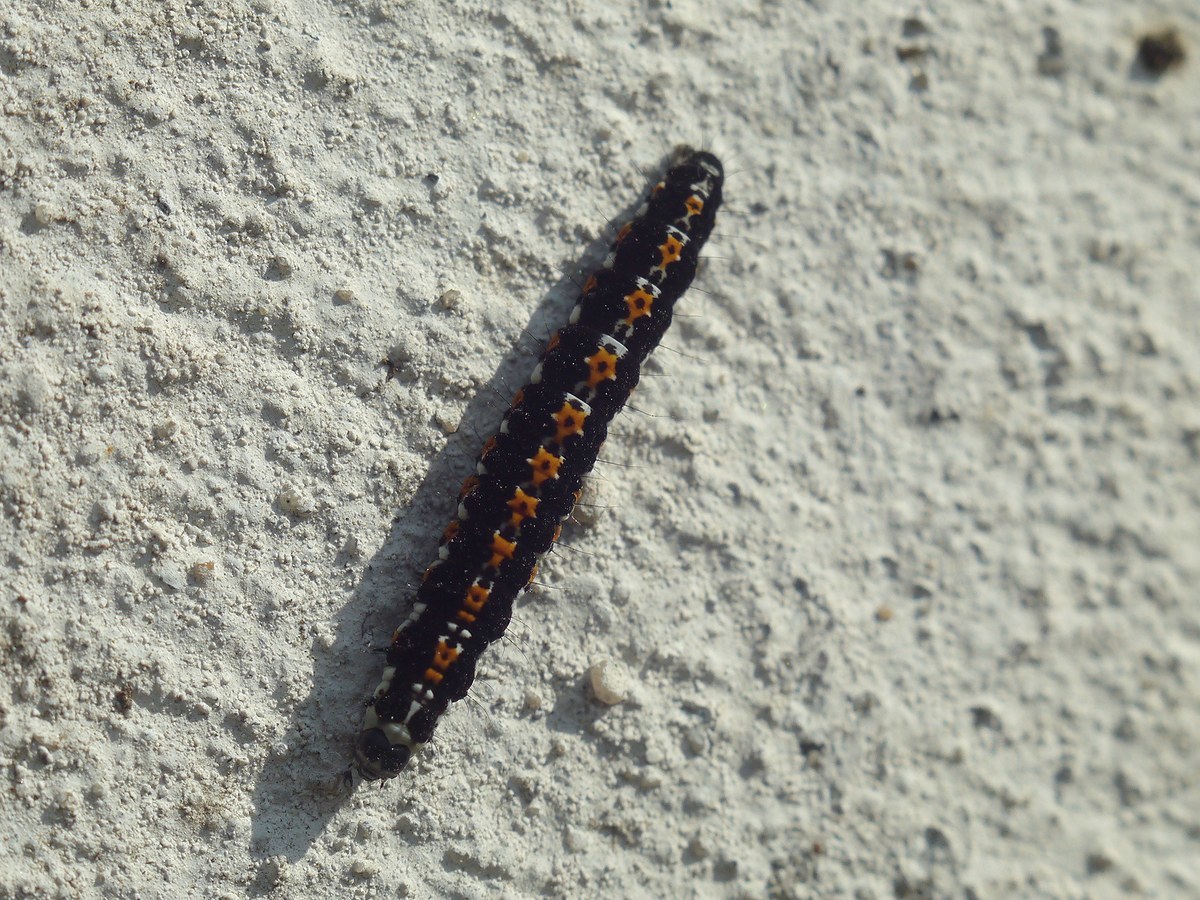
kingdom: Animalia
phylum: Arthropoda
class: Insecta
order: Lepidoptera
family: Ethmiidae
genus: Ethmia
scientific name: Ethmia candidella
